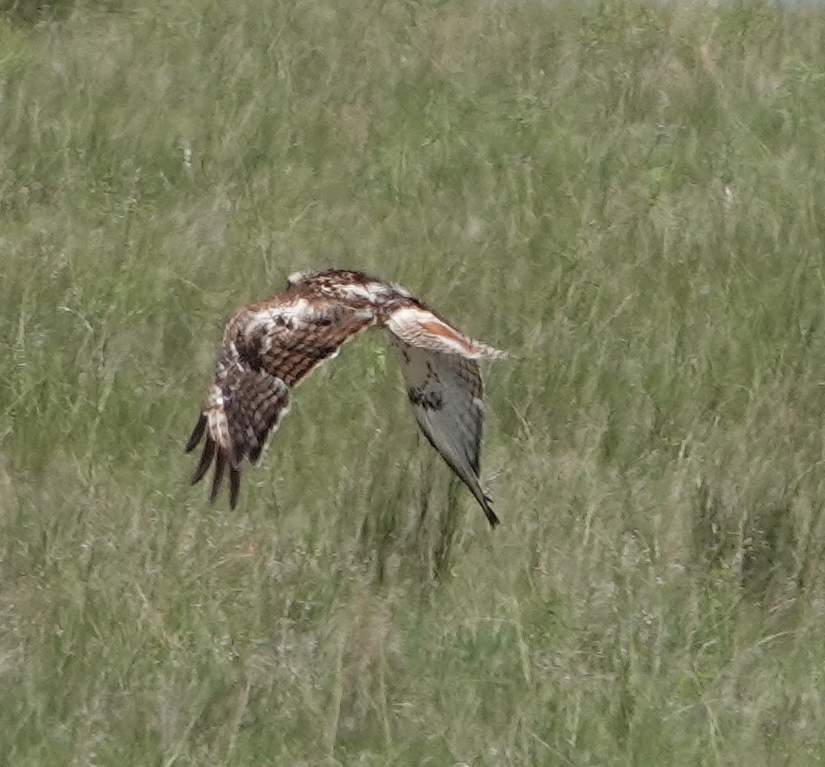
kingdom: Animalia
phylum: Chordata
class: Aves
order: Accipitriformes
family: Accipitridae
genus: Buteo
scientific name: Buteo jamaicensis
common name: Red-tailed hawk
